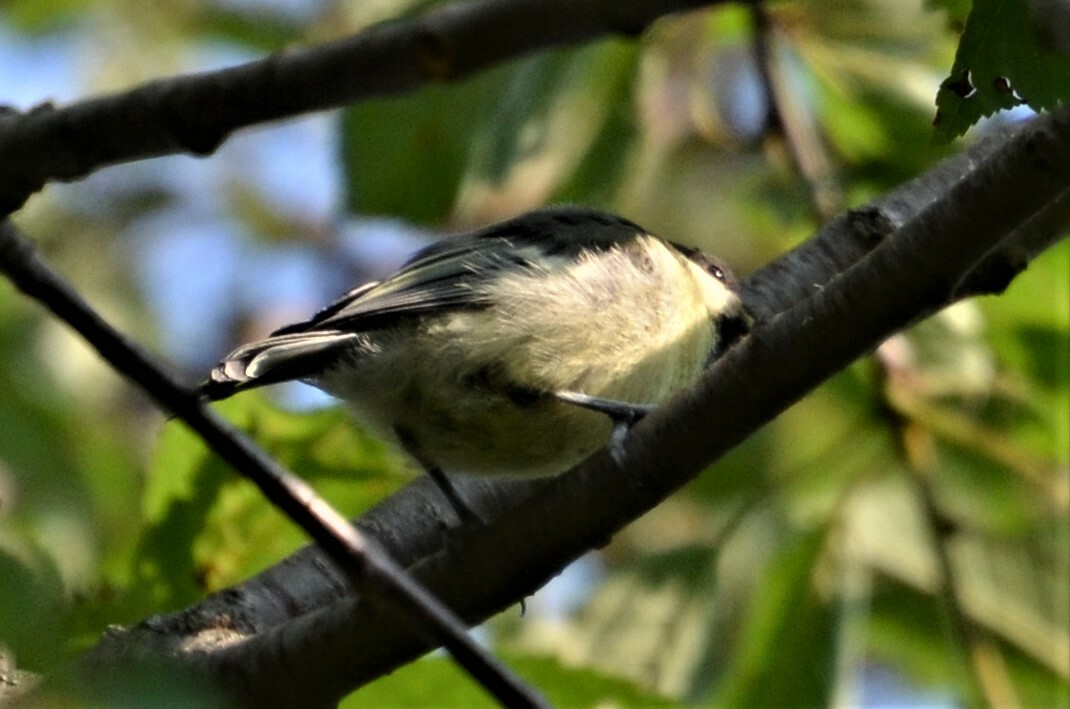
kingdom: Animalia
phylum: Chordata
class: Aves
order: Passeriformes
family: Paridae
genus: Parus
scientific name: Parus major
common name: Great tit
